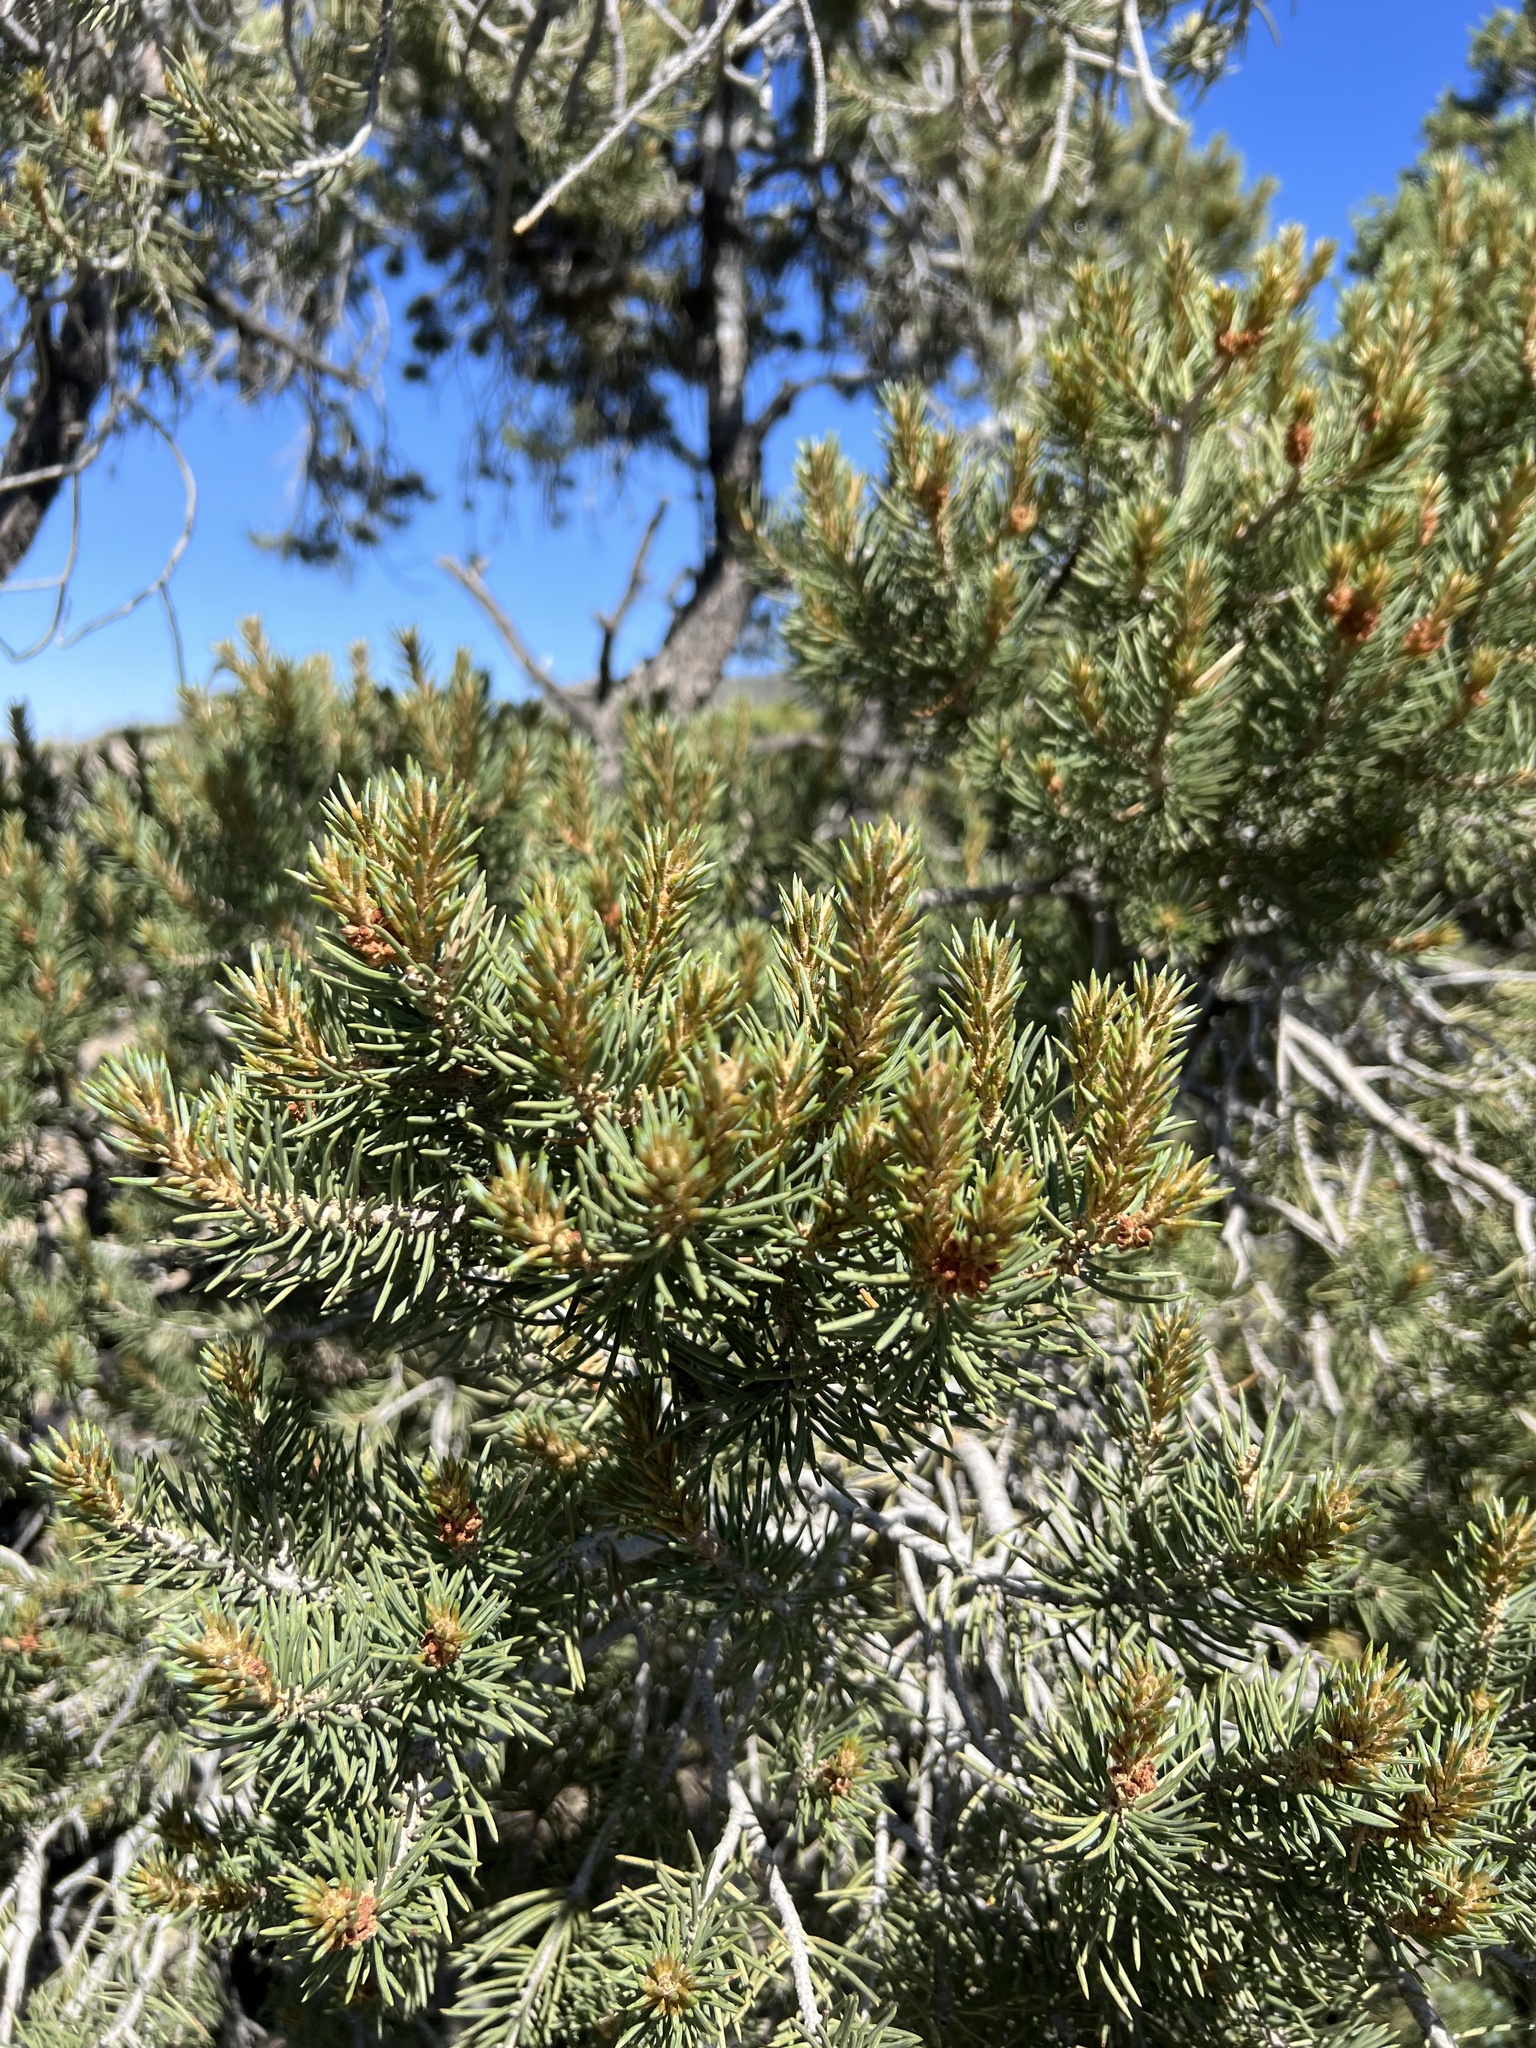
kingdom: Plantae
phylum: Tracheophyta
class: Pinopsida
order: Pinales
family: Pinaceae
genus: Pinus
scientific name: Pinus monophylla
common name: One-leaved nut pine
